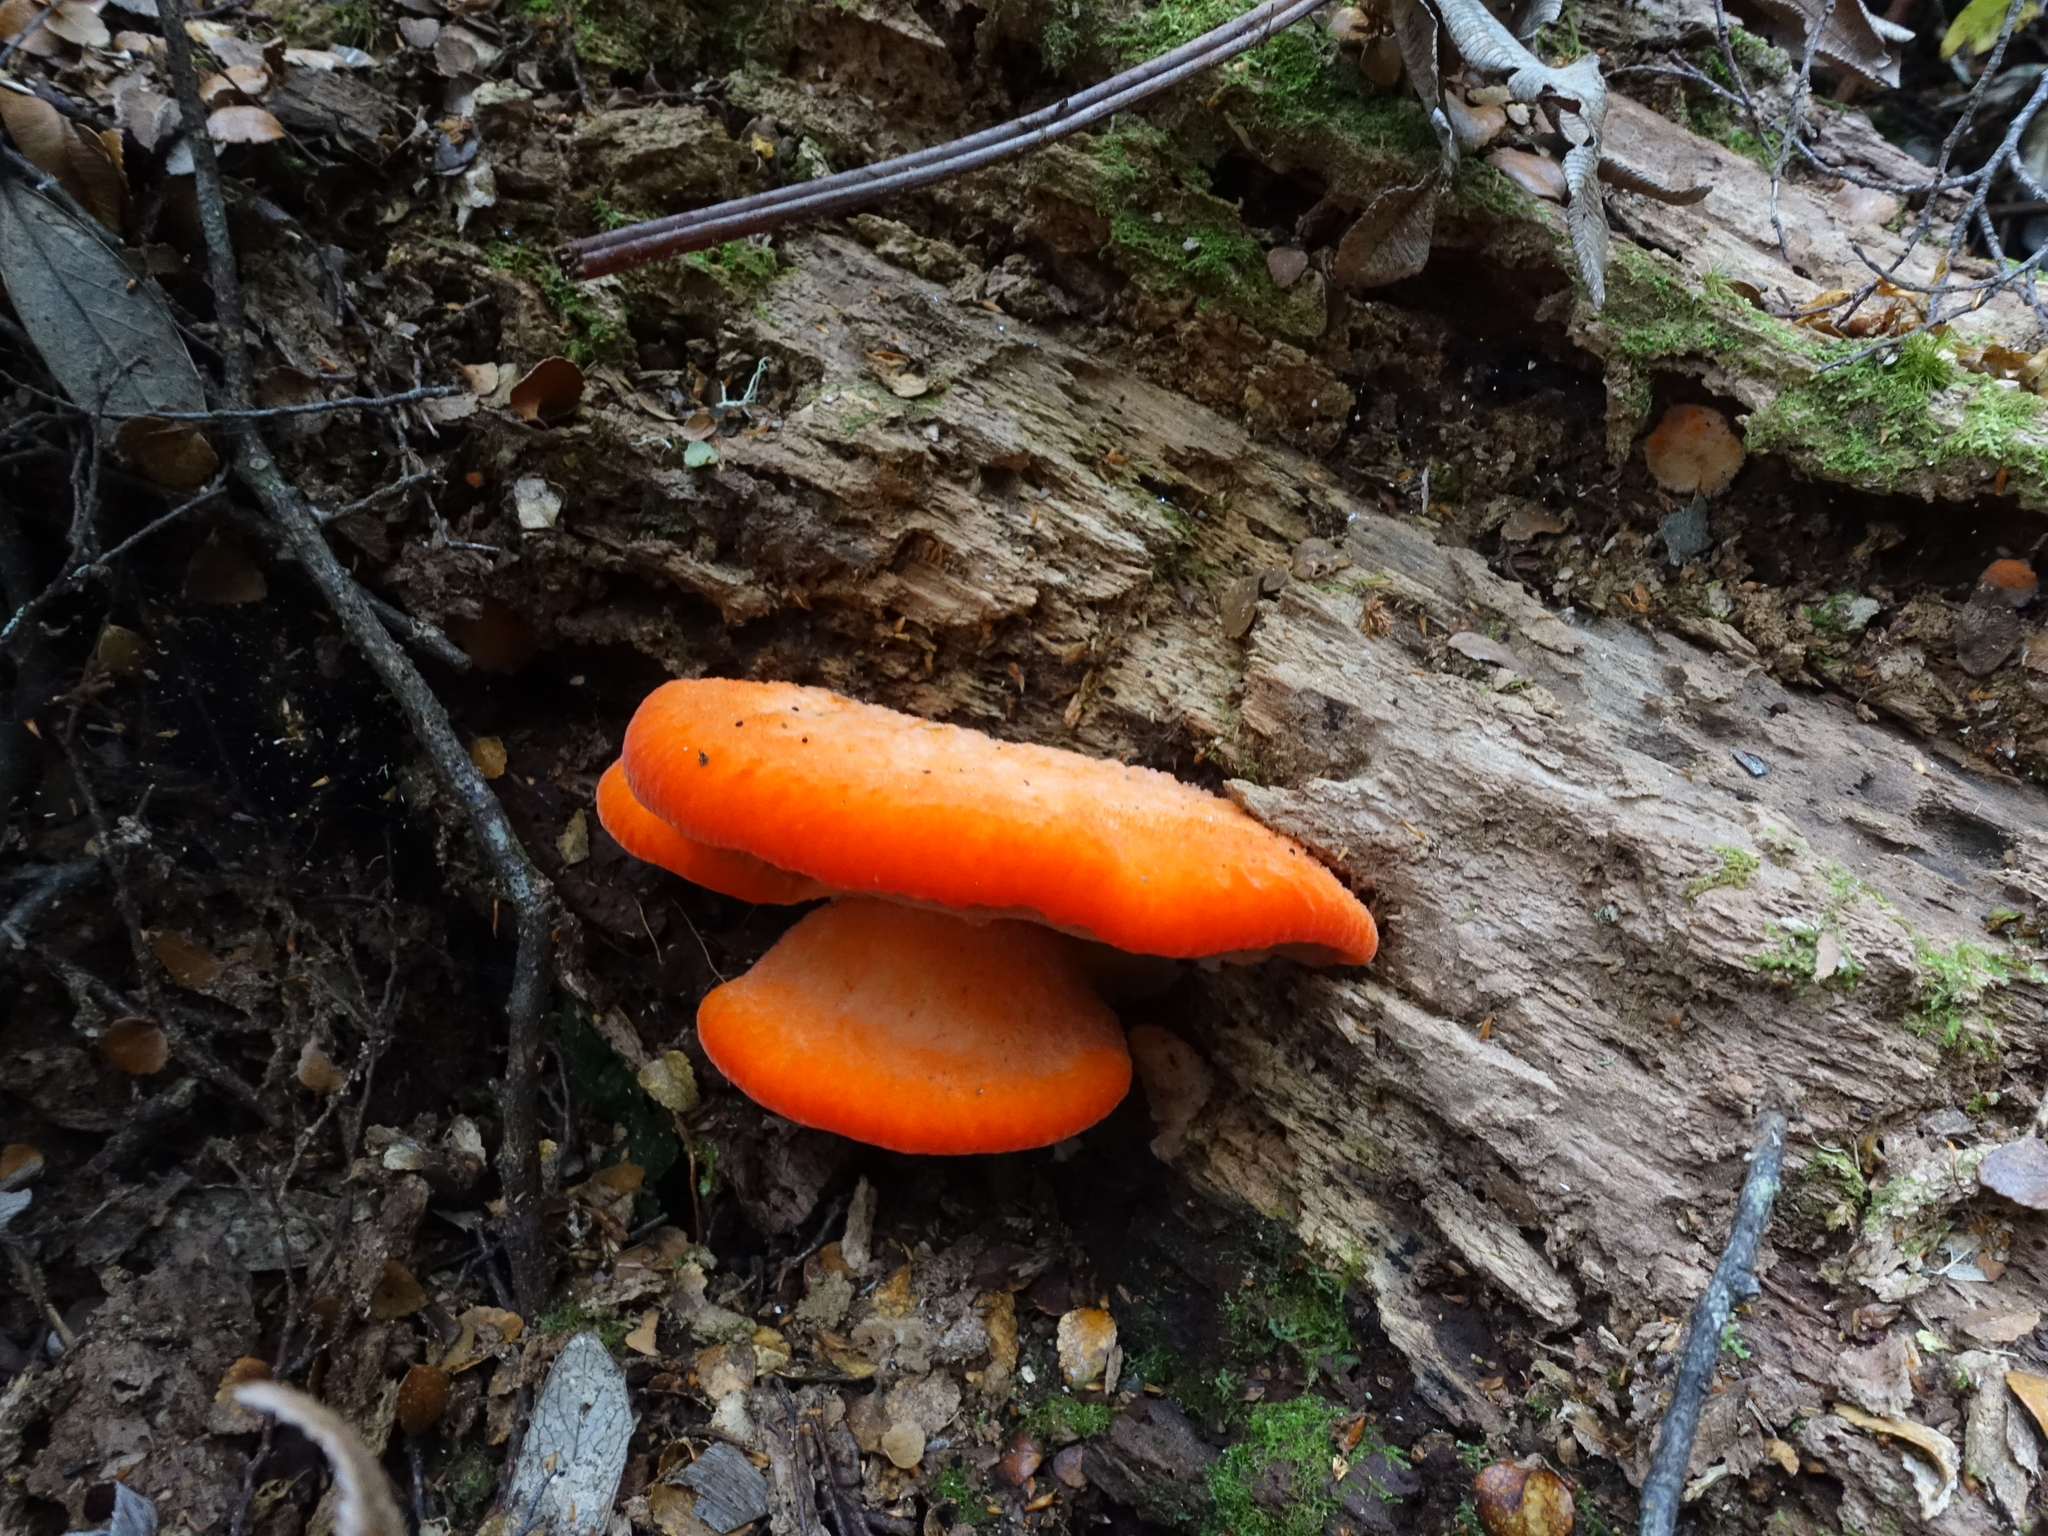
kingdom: Fungi
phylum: Basidiomycota
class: Agaricomycetes
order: Polyporales
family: Incrustoporiaceae
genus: Tyromyces
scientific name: Tyromyces pulcherrimus
